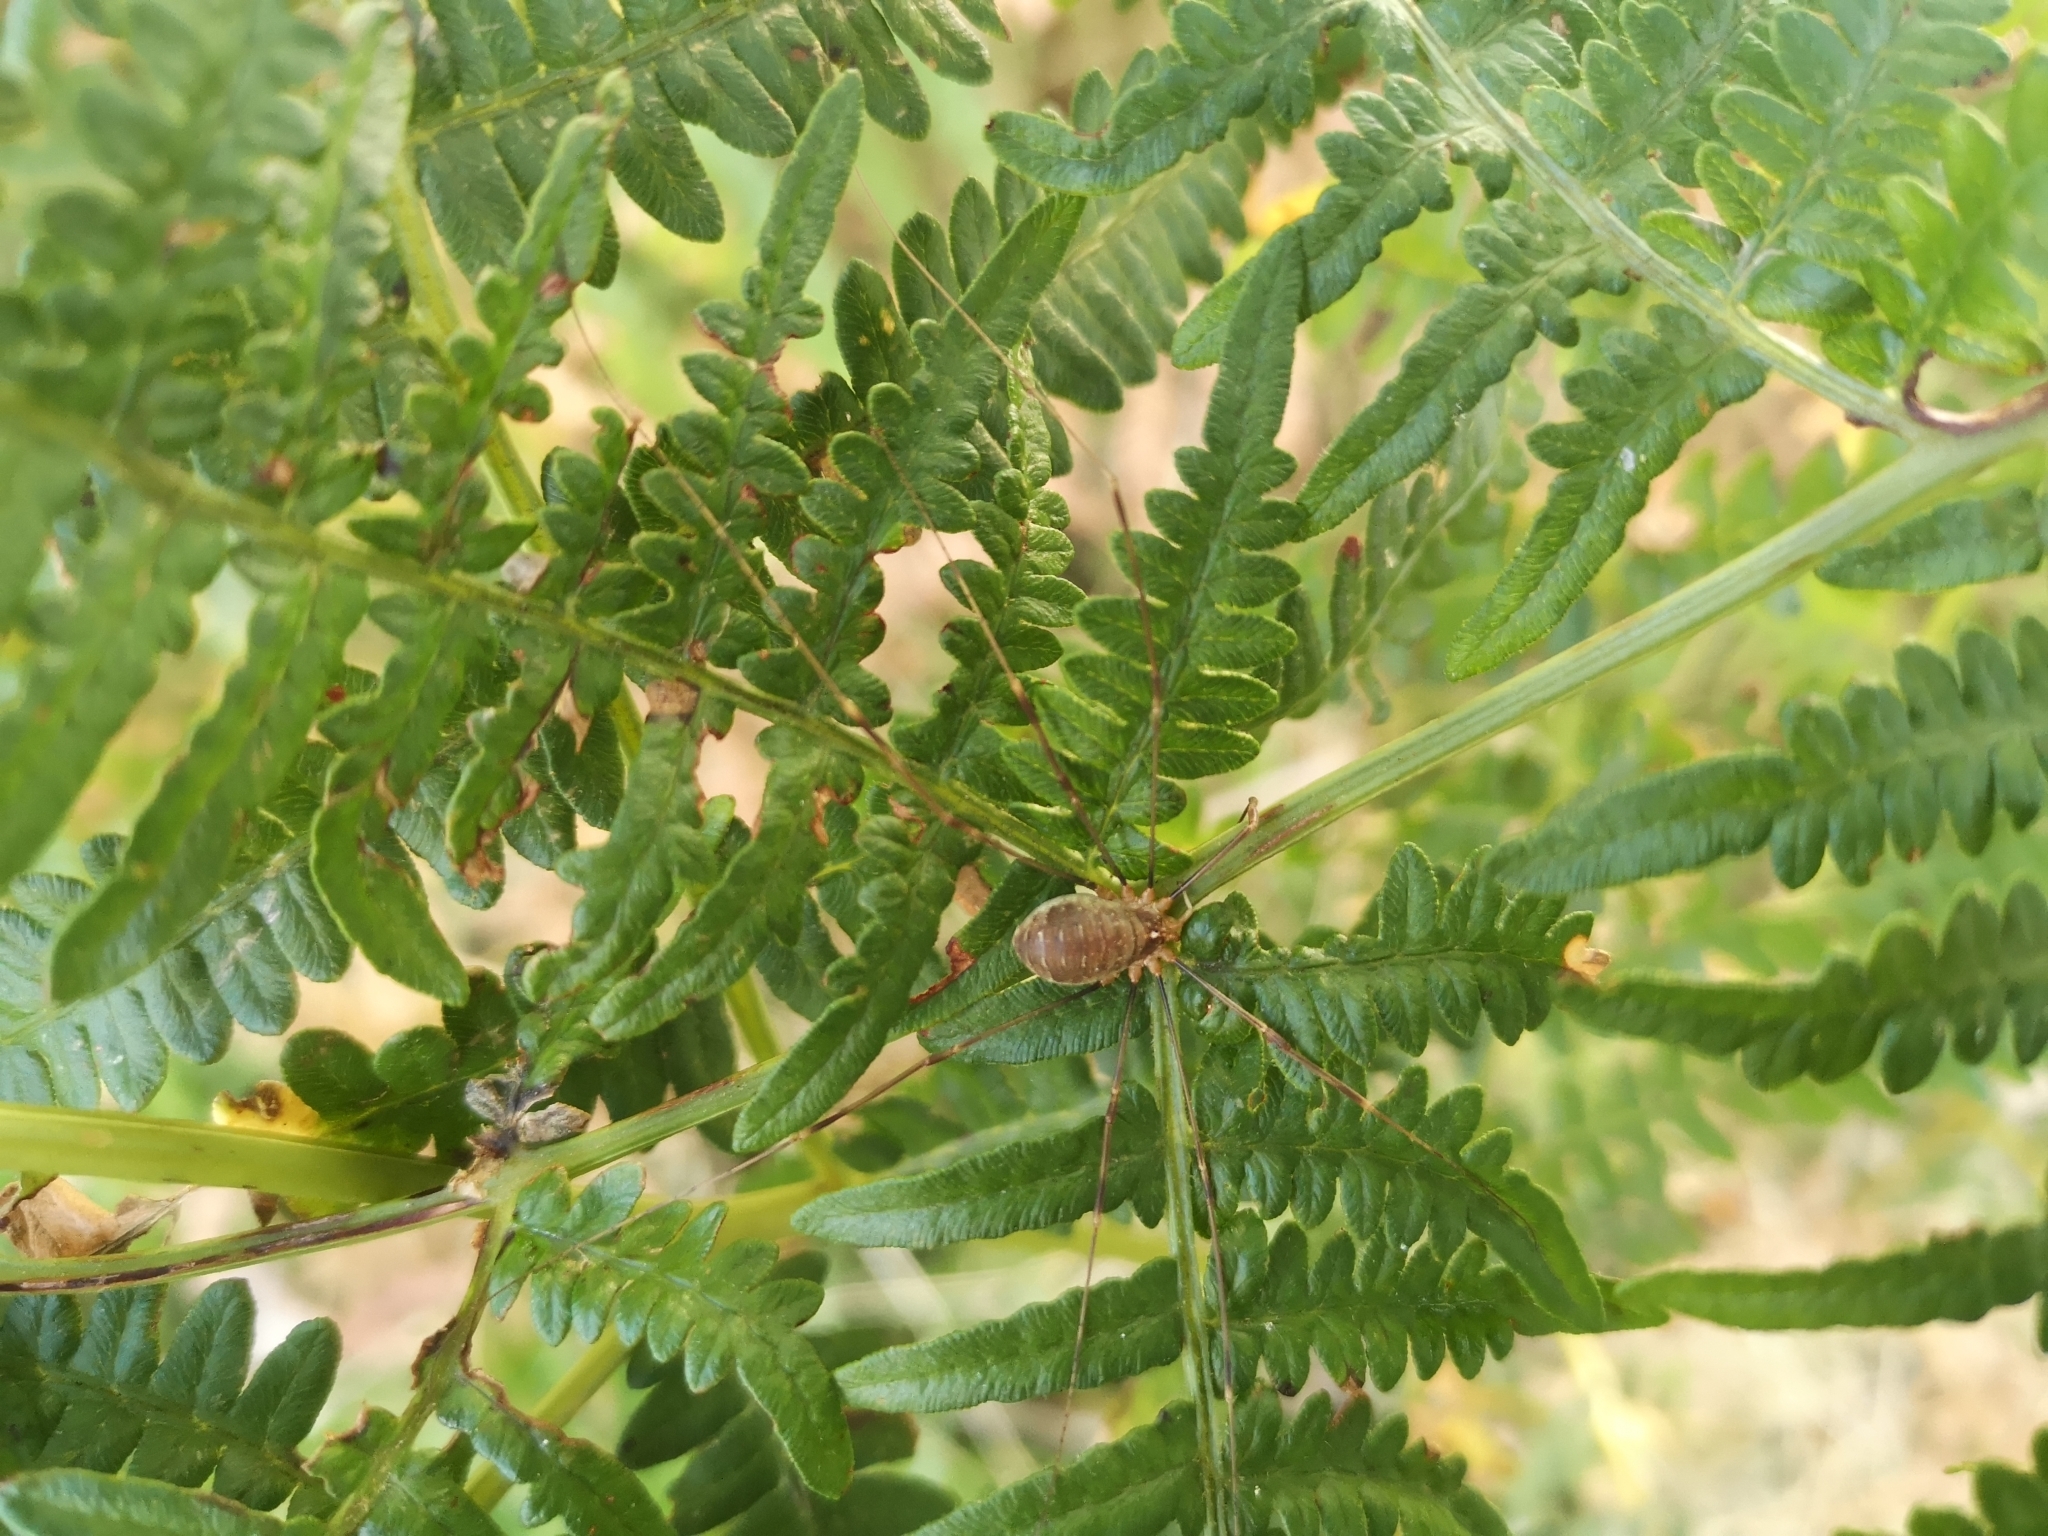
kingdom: Animalia
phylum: Arthropoda
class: Arachnida
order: Opiliones
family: Phalangiidae
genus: Opilio
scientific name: Opilio canestrinii
